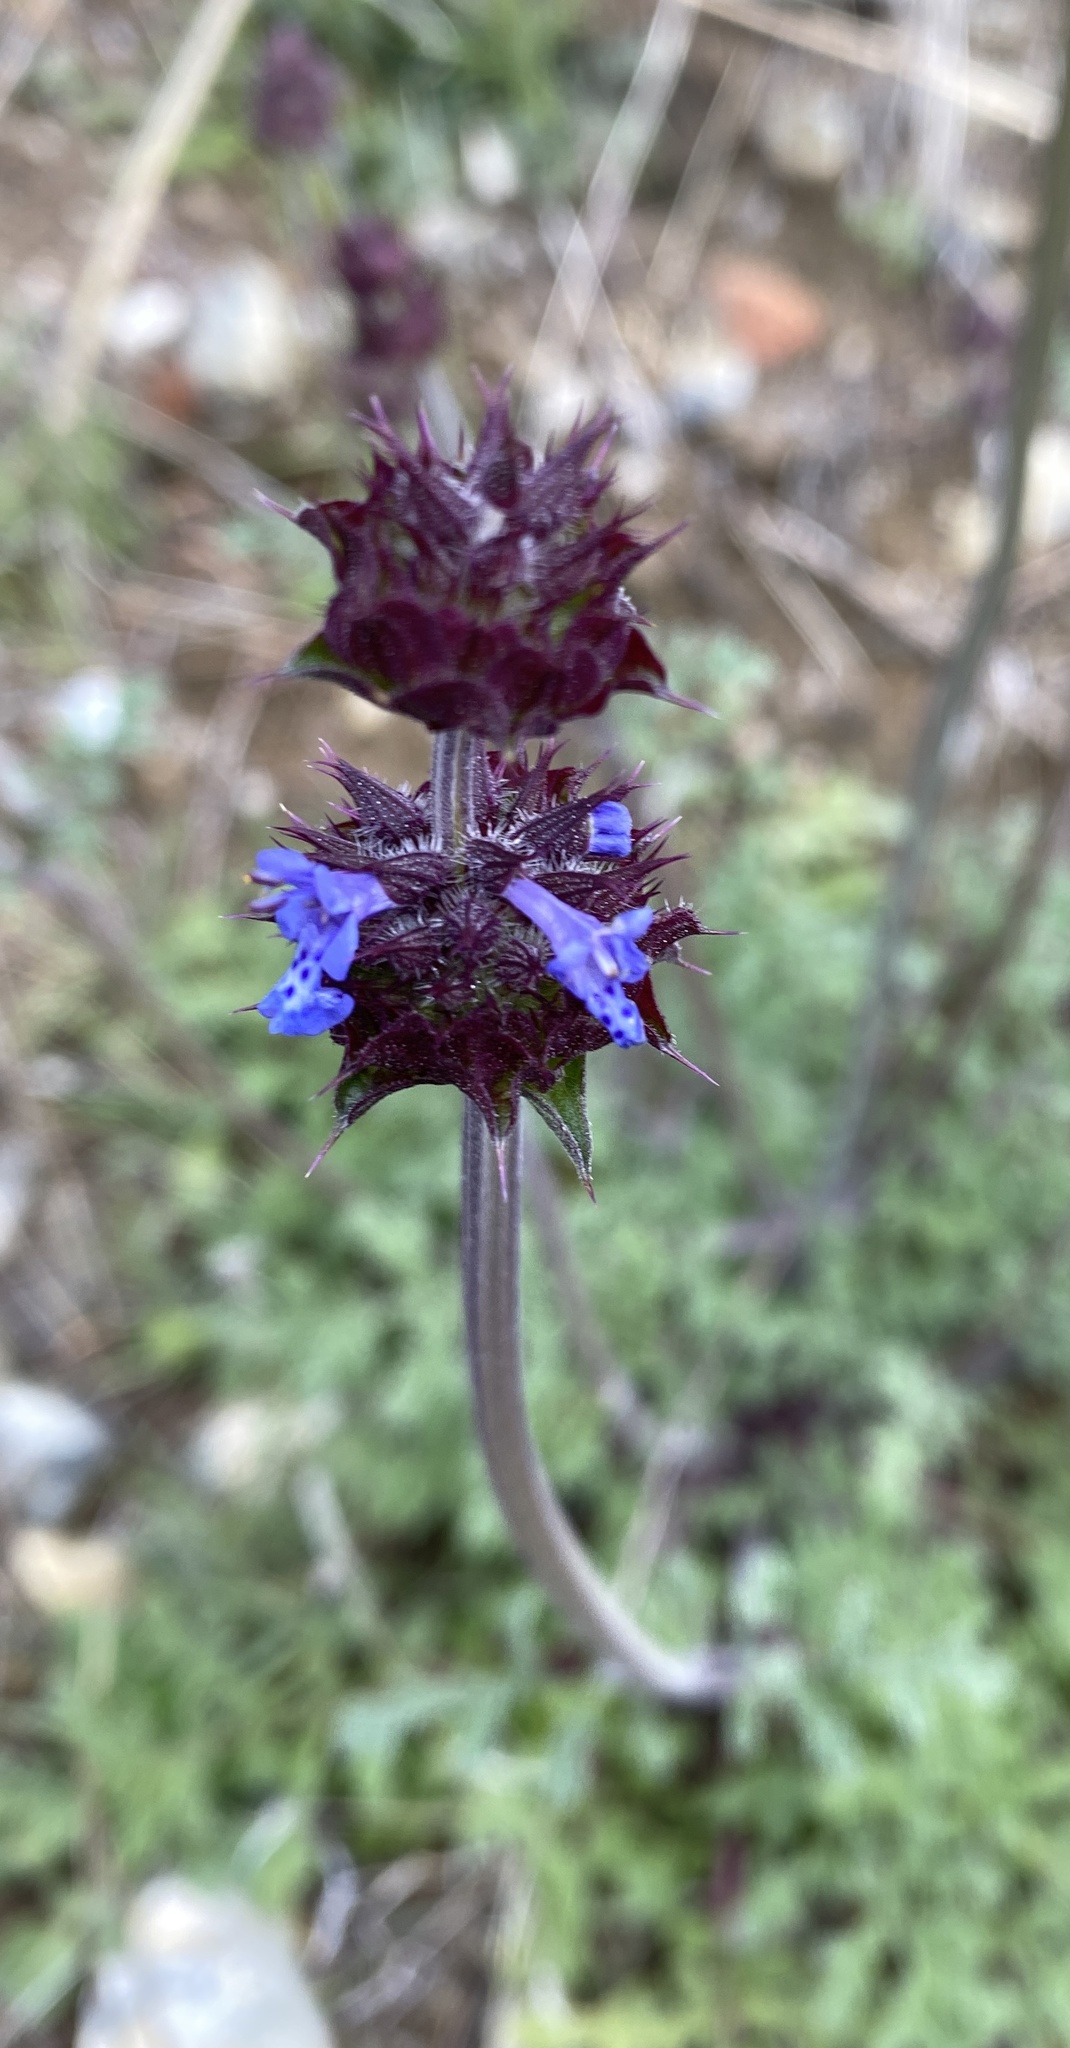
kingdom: Plantae
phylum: Tracheophyta
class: Magnoliopsida
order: Lamiales
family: Lamiaceae
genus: Salvia
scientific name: Salvia columbariae
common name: Chia
